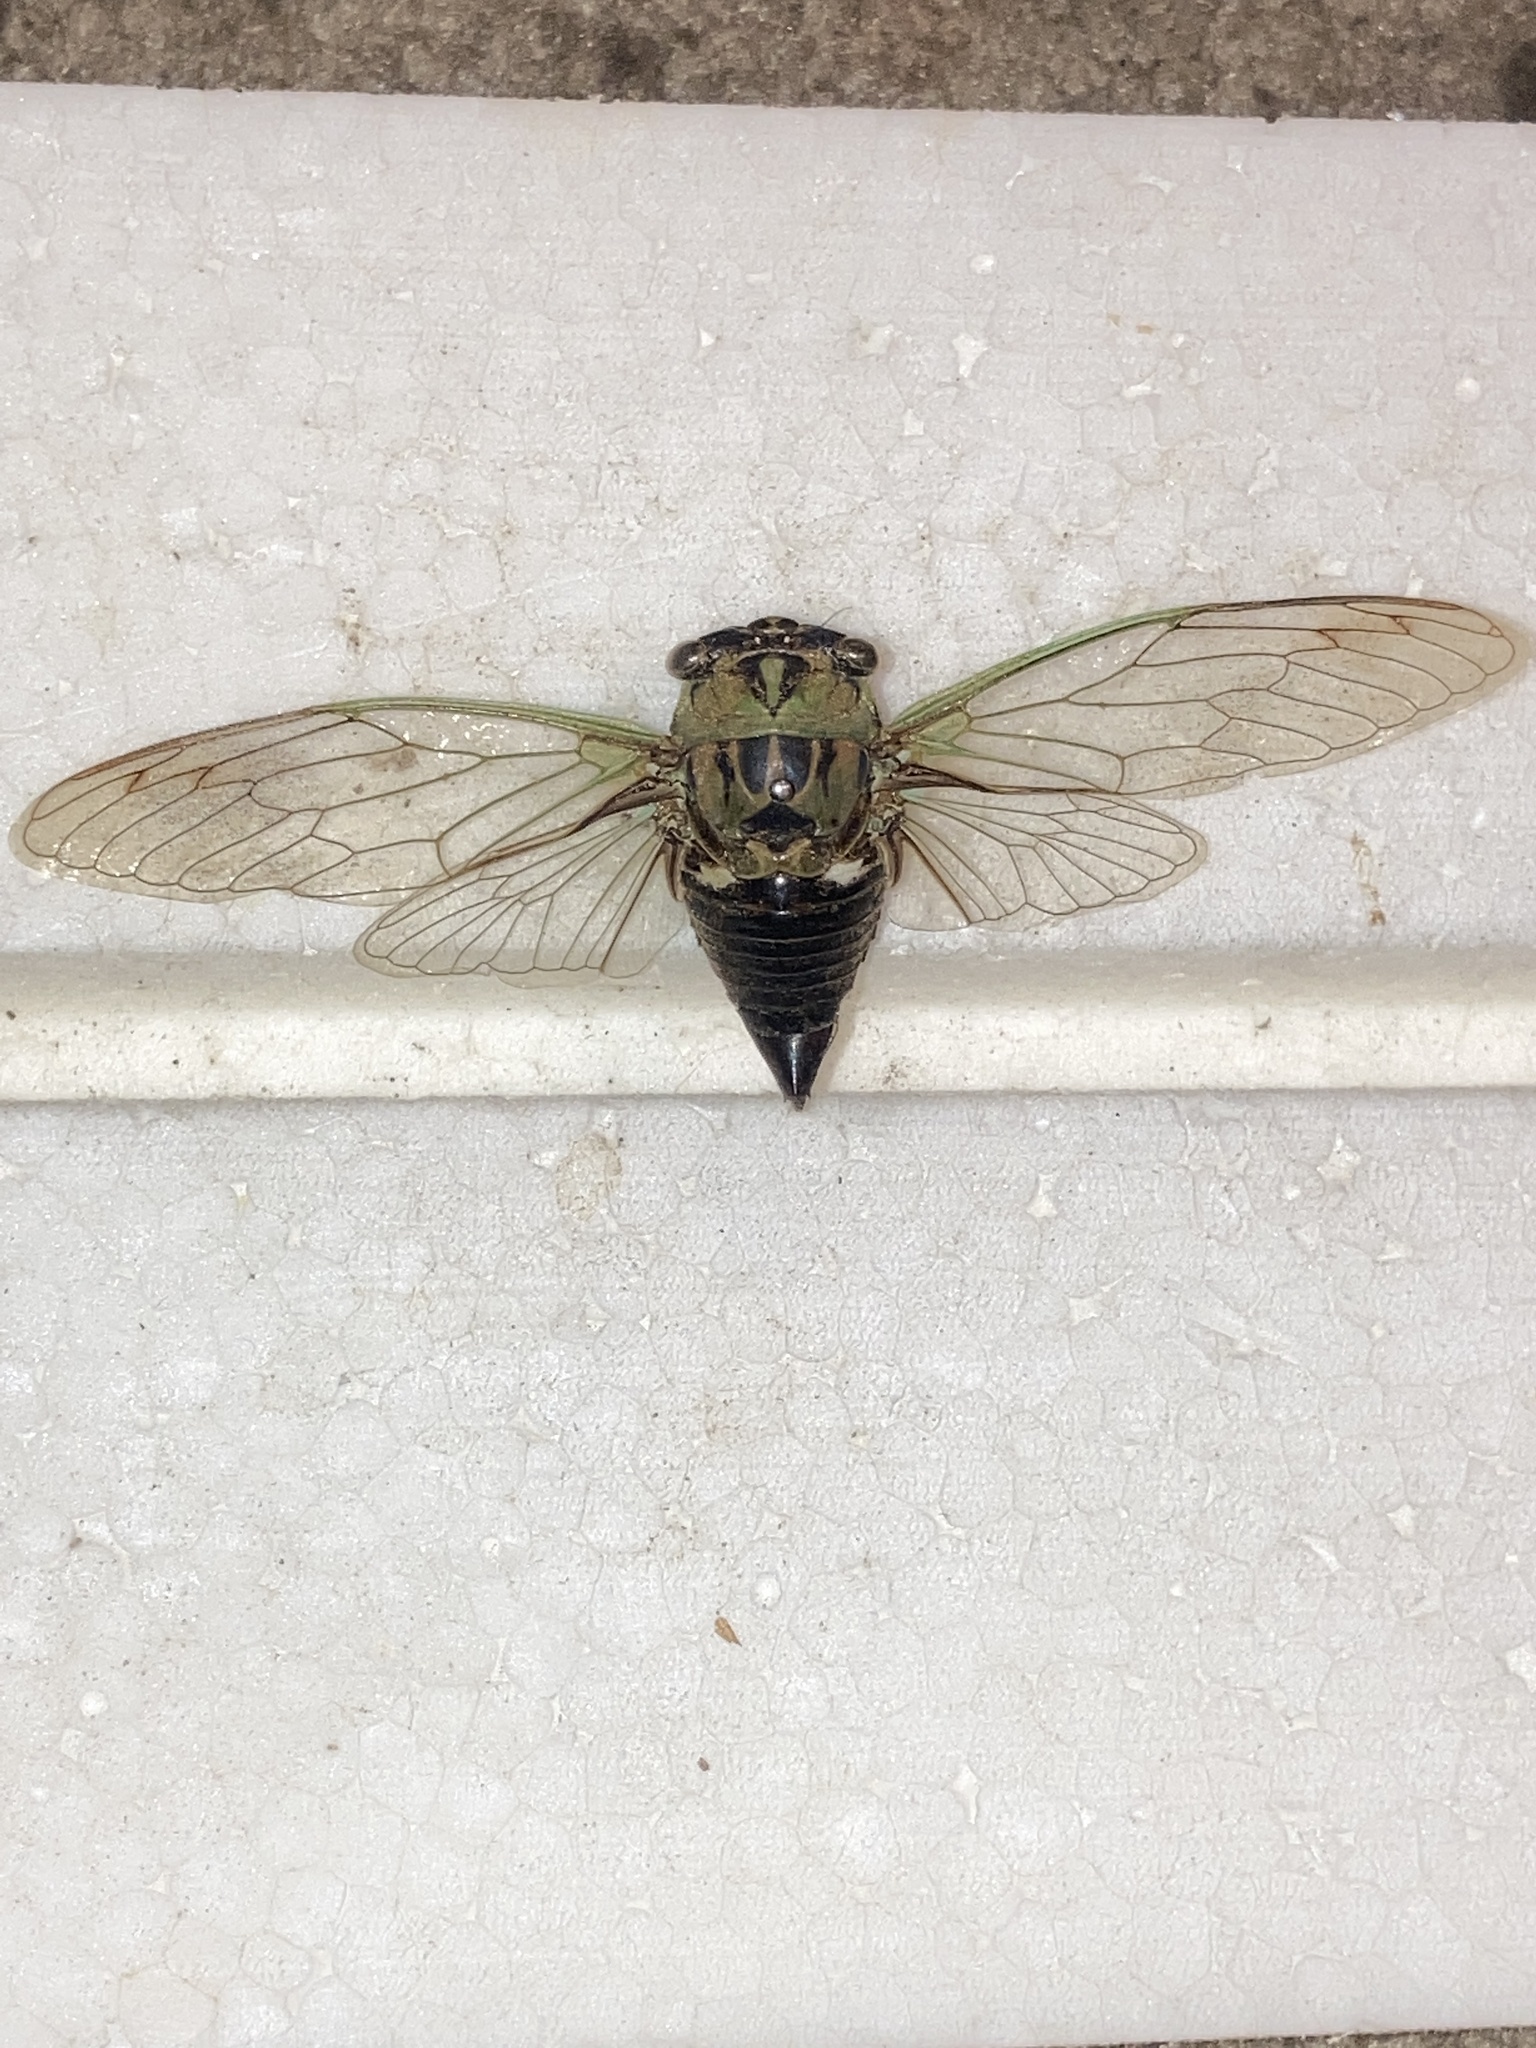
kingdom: Animalia
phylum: Arthropoda
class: Insecta
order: Hemiptera
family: Cicadidae
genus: Neotibicen
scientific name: Neotibicen pruinosus
